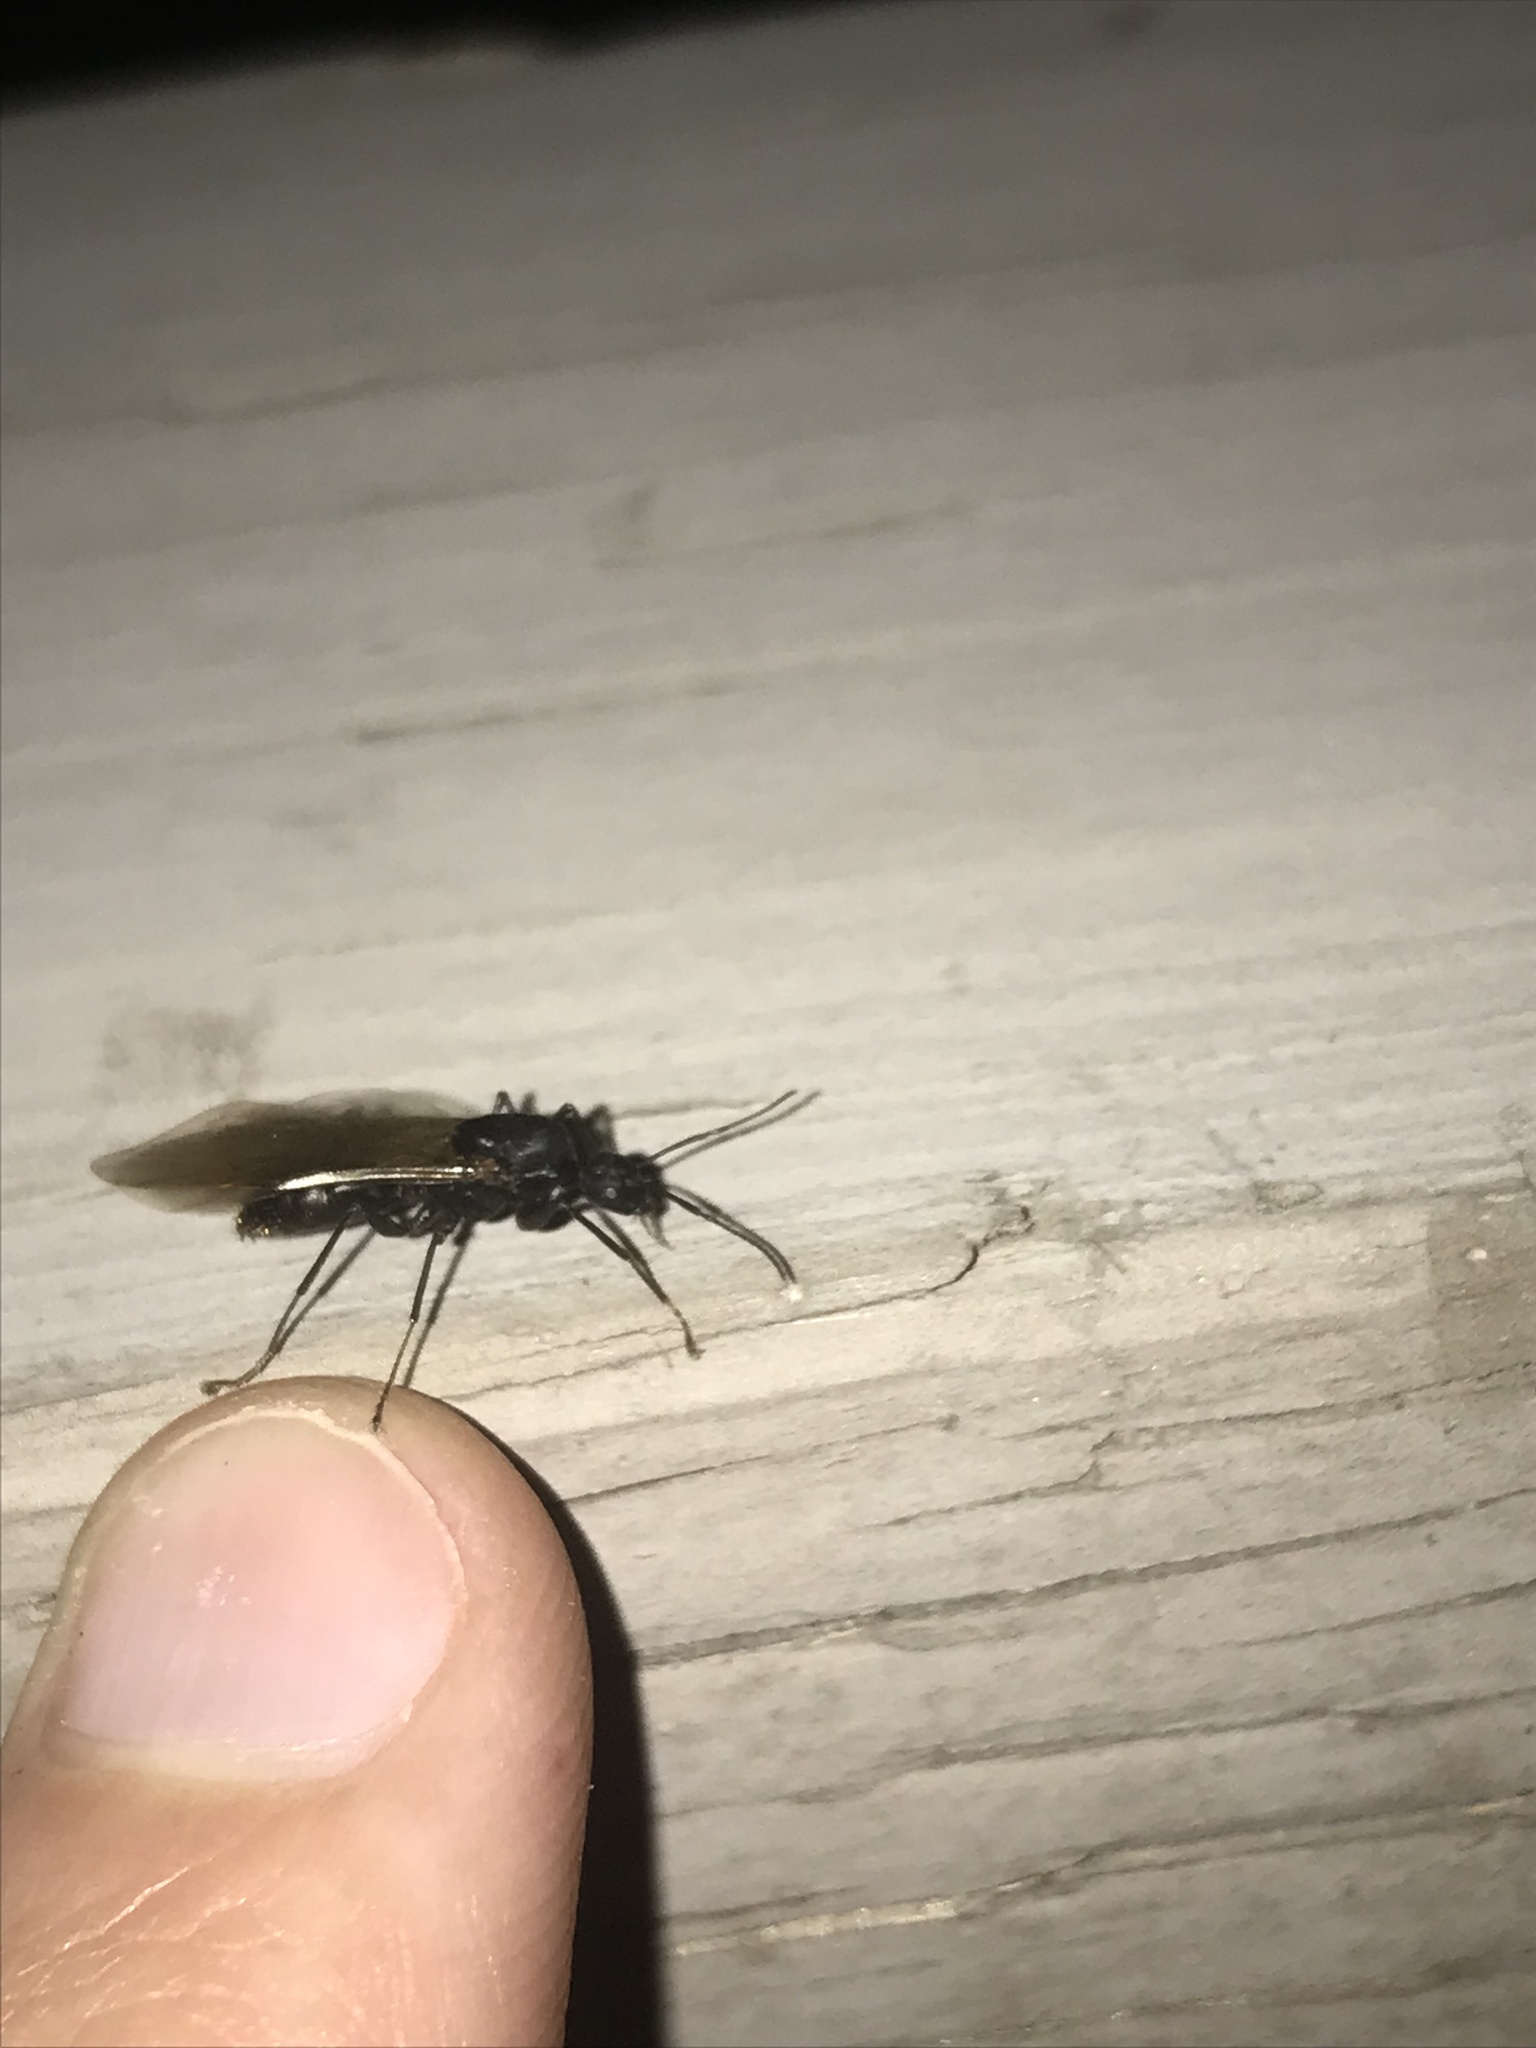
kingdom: Animalia
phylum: Arthropoda
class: Insecta
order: Hymenoptera
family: Formicidae
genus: Camponotus
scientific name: Camponotus
